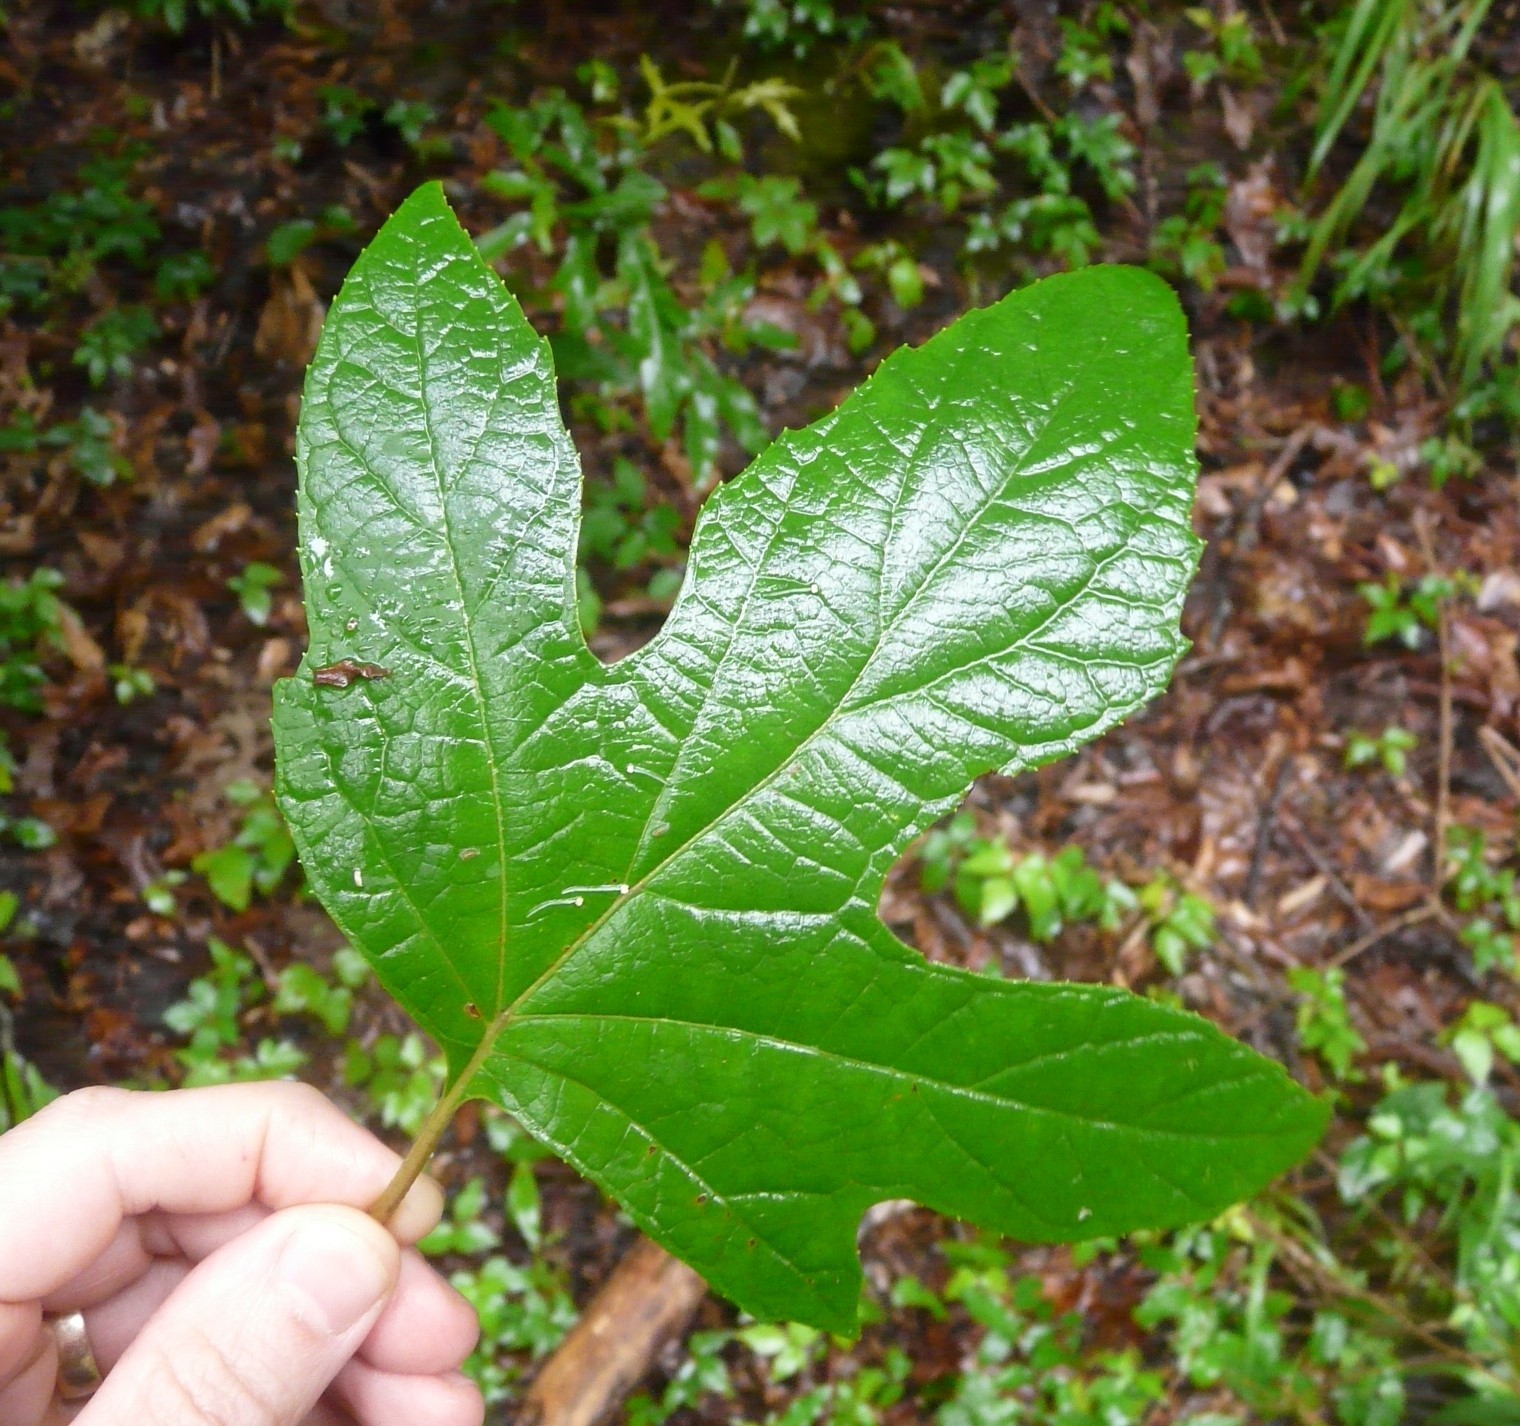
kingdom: Plantae
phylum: Tracheophyta
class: Magnoliopsida
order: Cornales
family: Hydrangeaceae
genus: Hydrangea
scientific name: Hydrangea quercifolia
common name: Oak-leaf hydrangea
